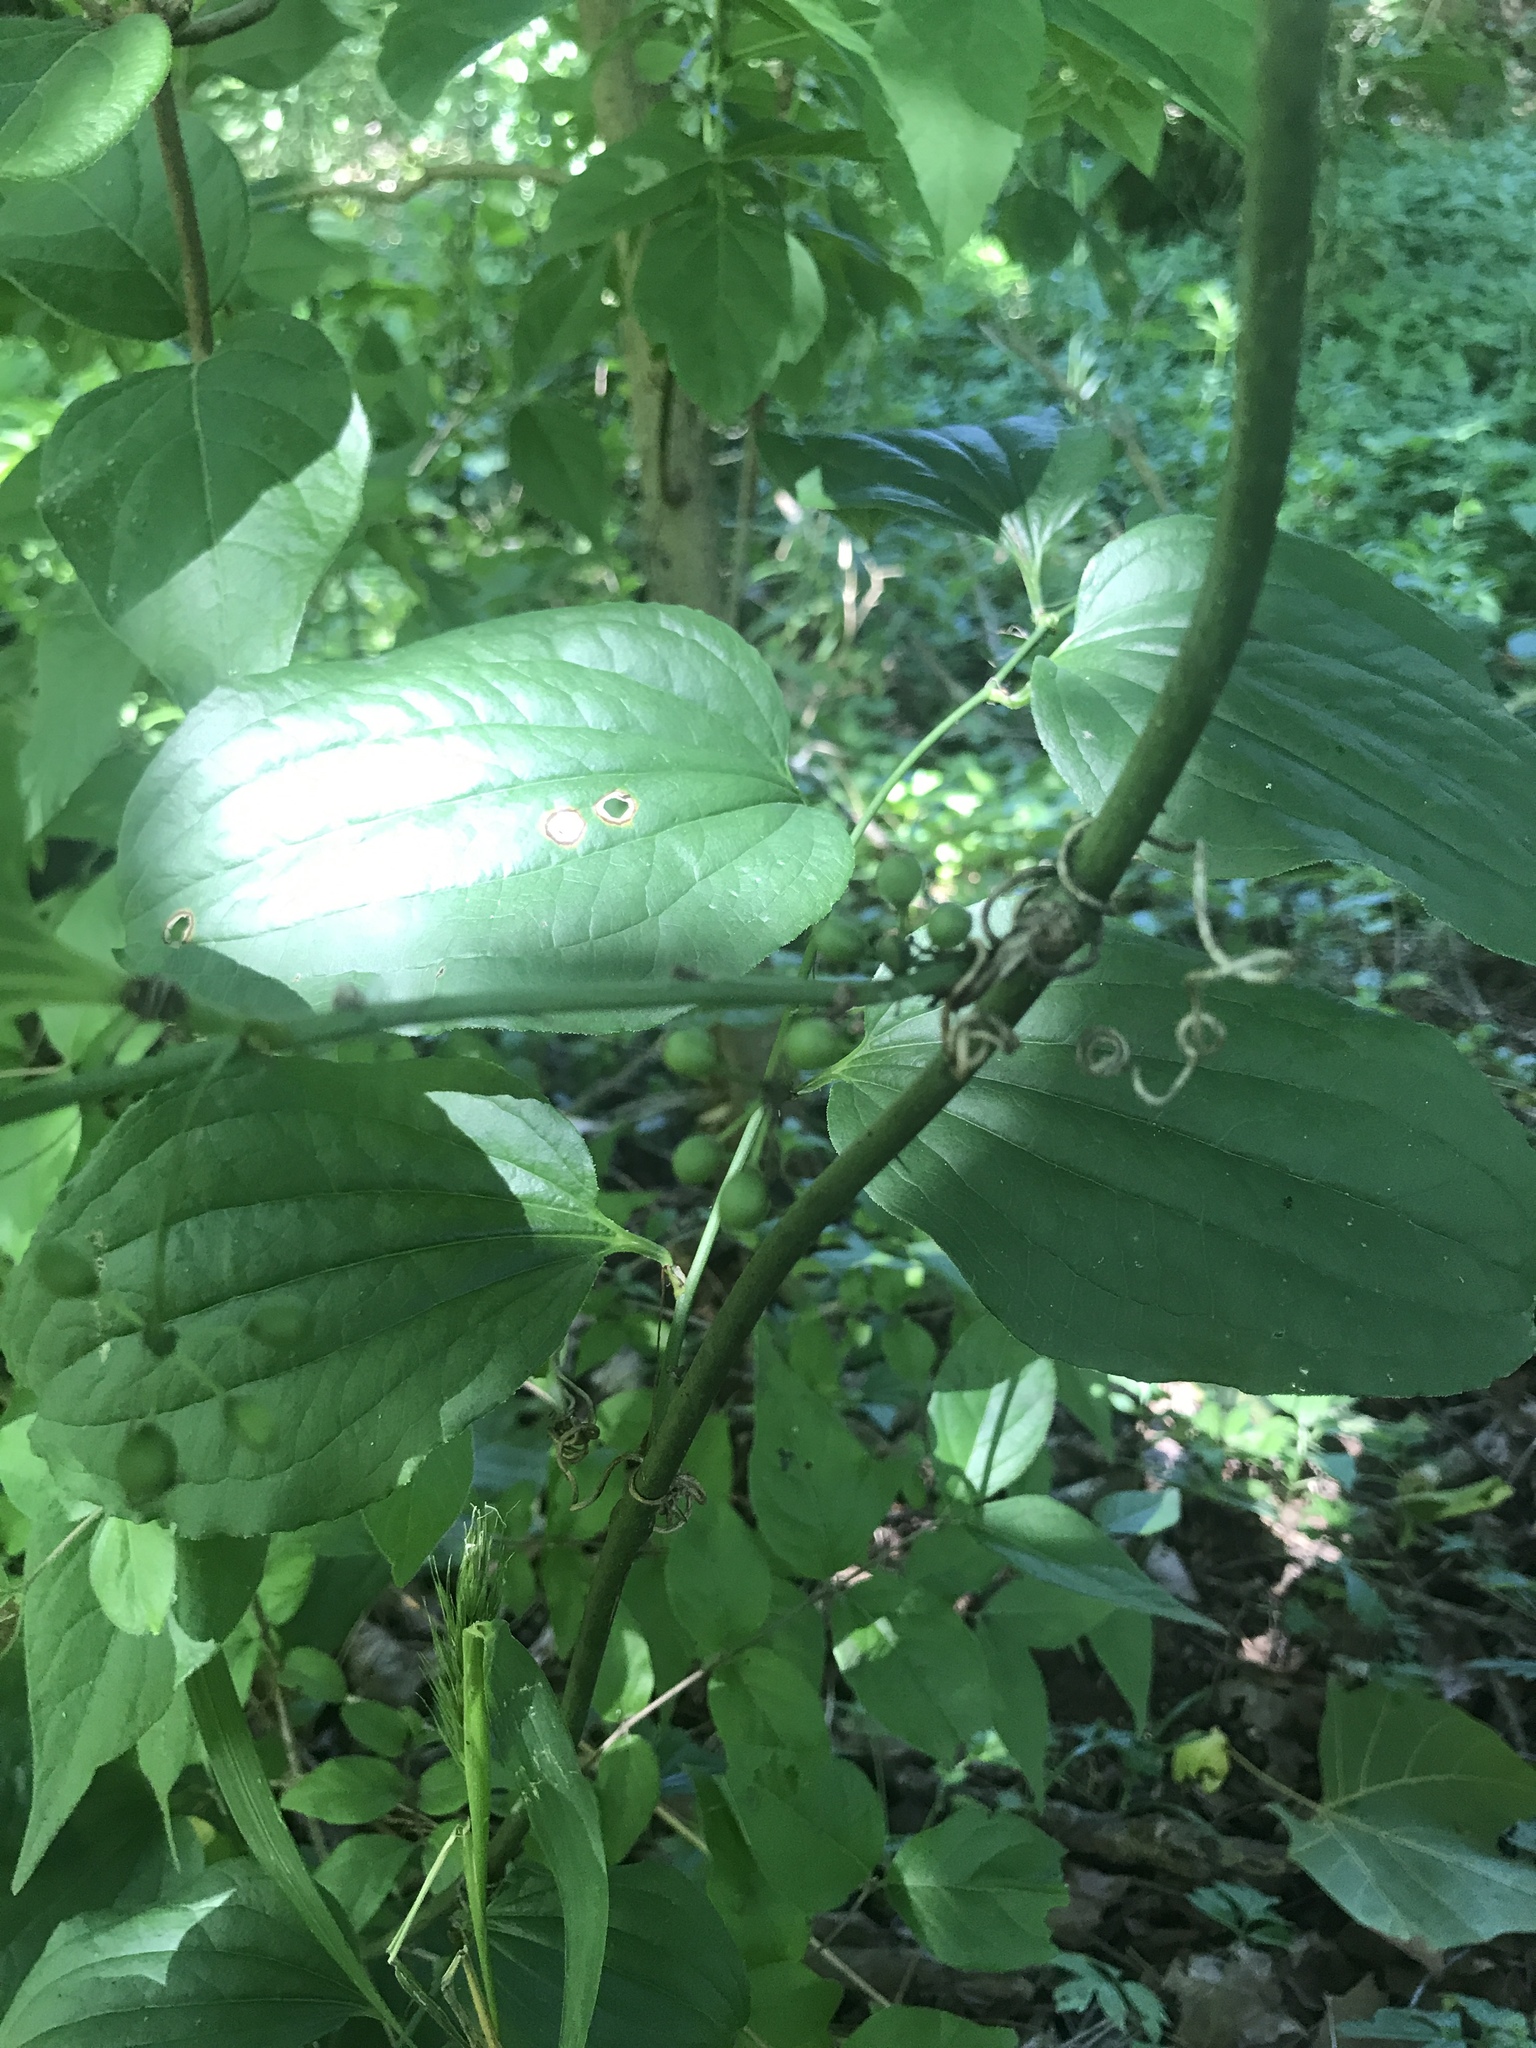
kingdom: Plantae
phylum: Tracheophyta
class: Liliopsida
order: Liliales
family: Smilacaceae
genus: Smilax
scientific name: Smilax tamnoides
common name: Hellfetter
